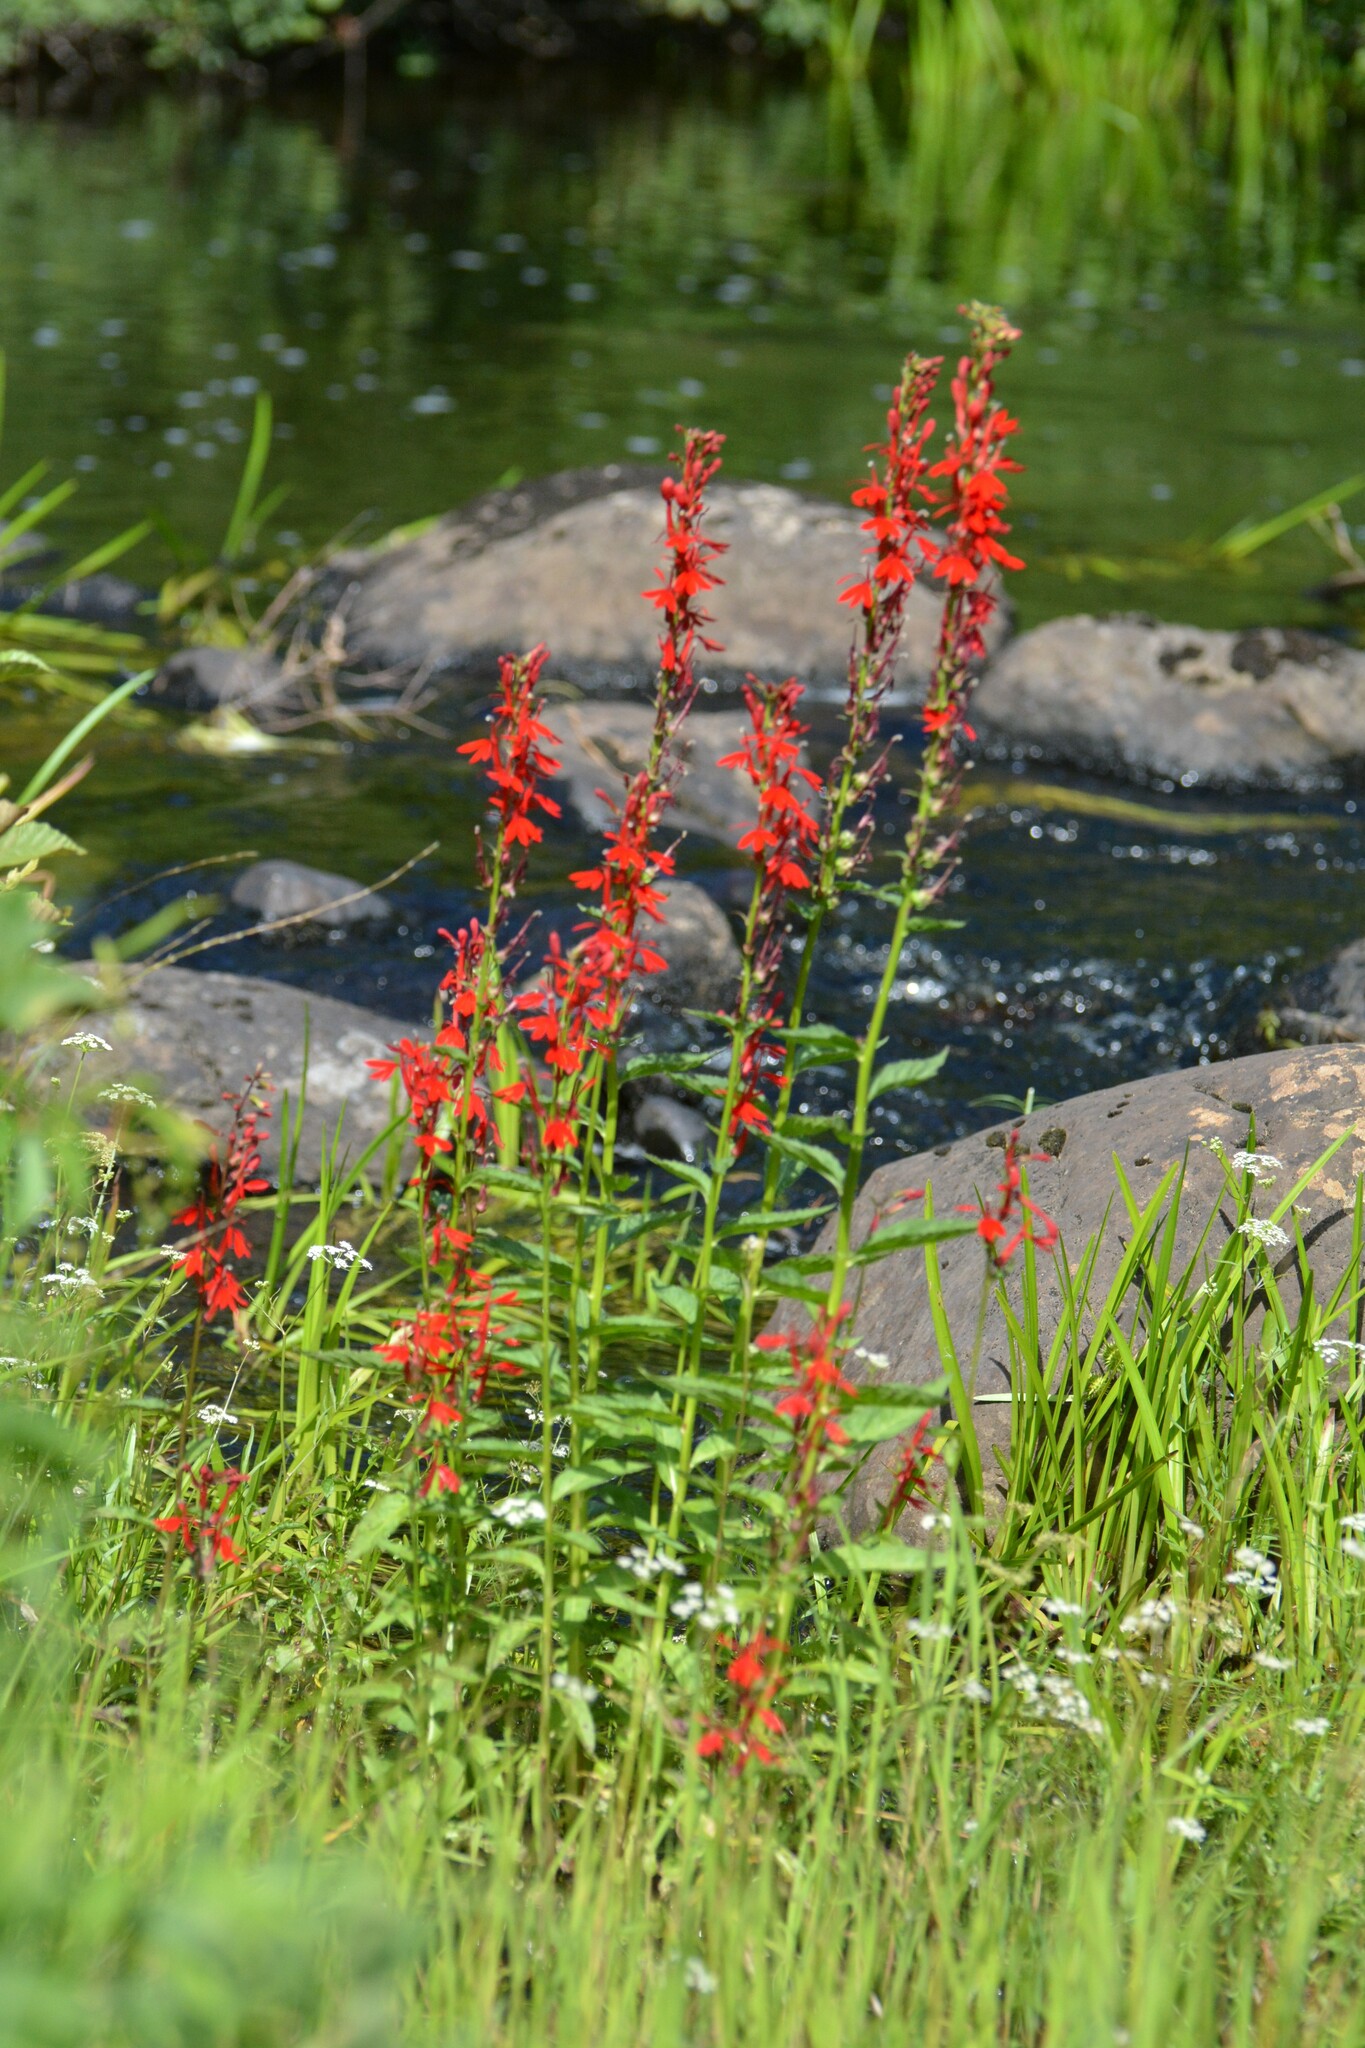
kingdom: Plantae
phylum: Tracheophyta
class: Magnoliopsida
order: Asterales
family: Campanulaceae
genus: Lobelia
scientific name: Lobelia cardinalis
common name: Cardinal flower
